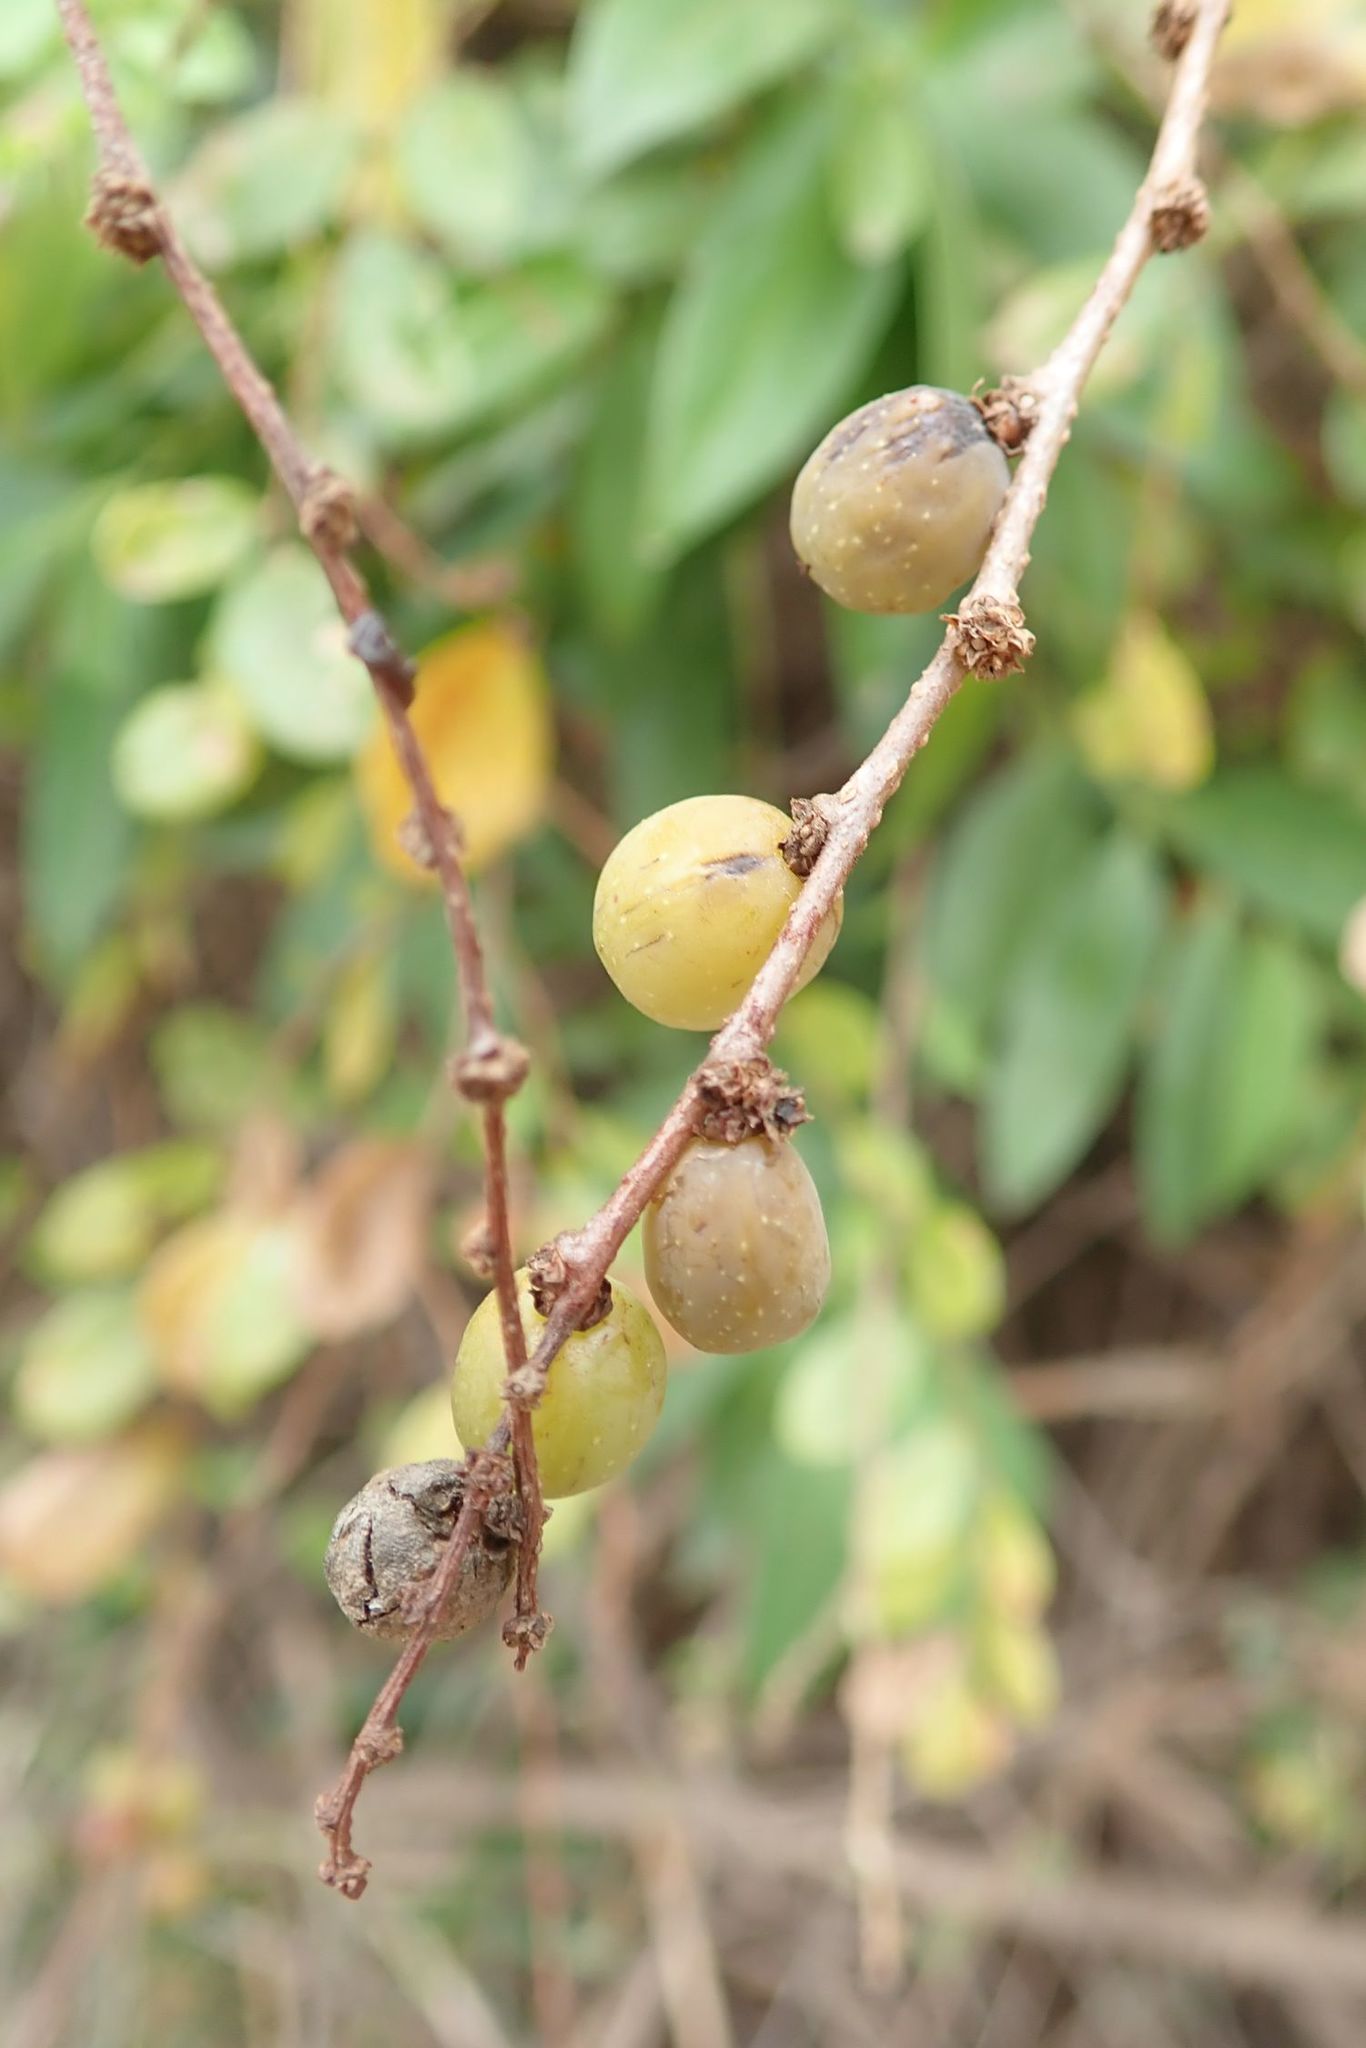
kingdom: Plantae
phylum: Tracheophyta
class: Magnoliopsida
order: Malpighiales
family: Phyllanthaceae
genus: Bridelia
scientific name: Bridelia cathartica
